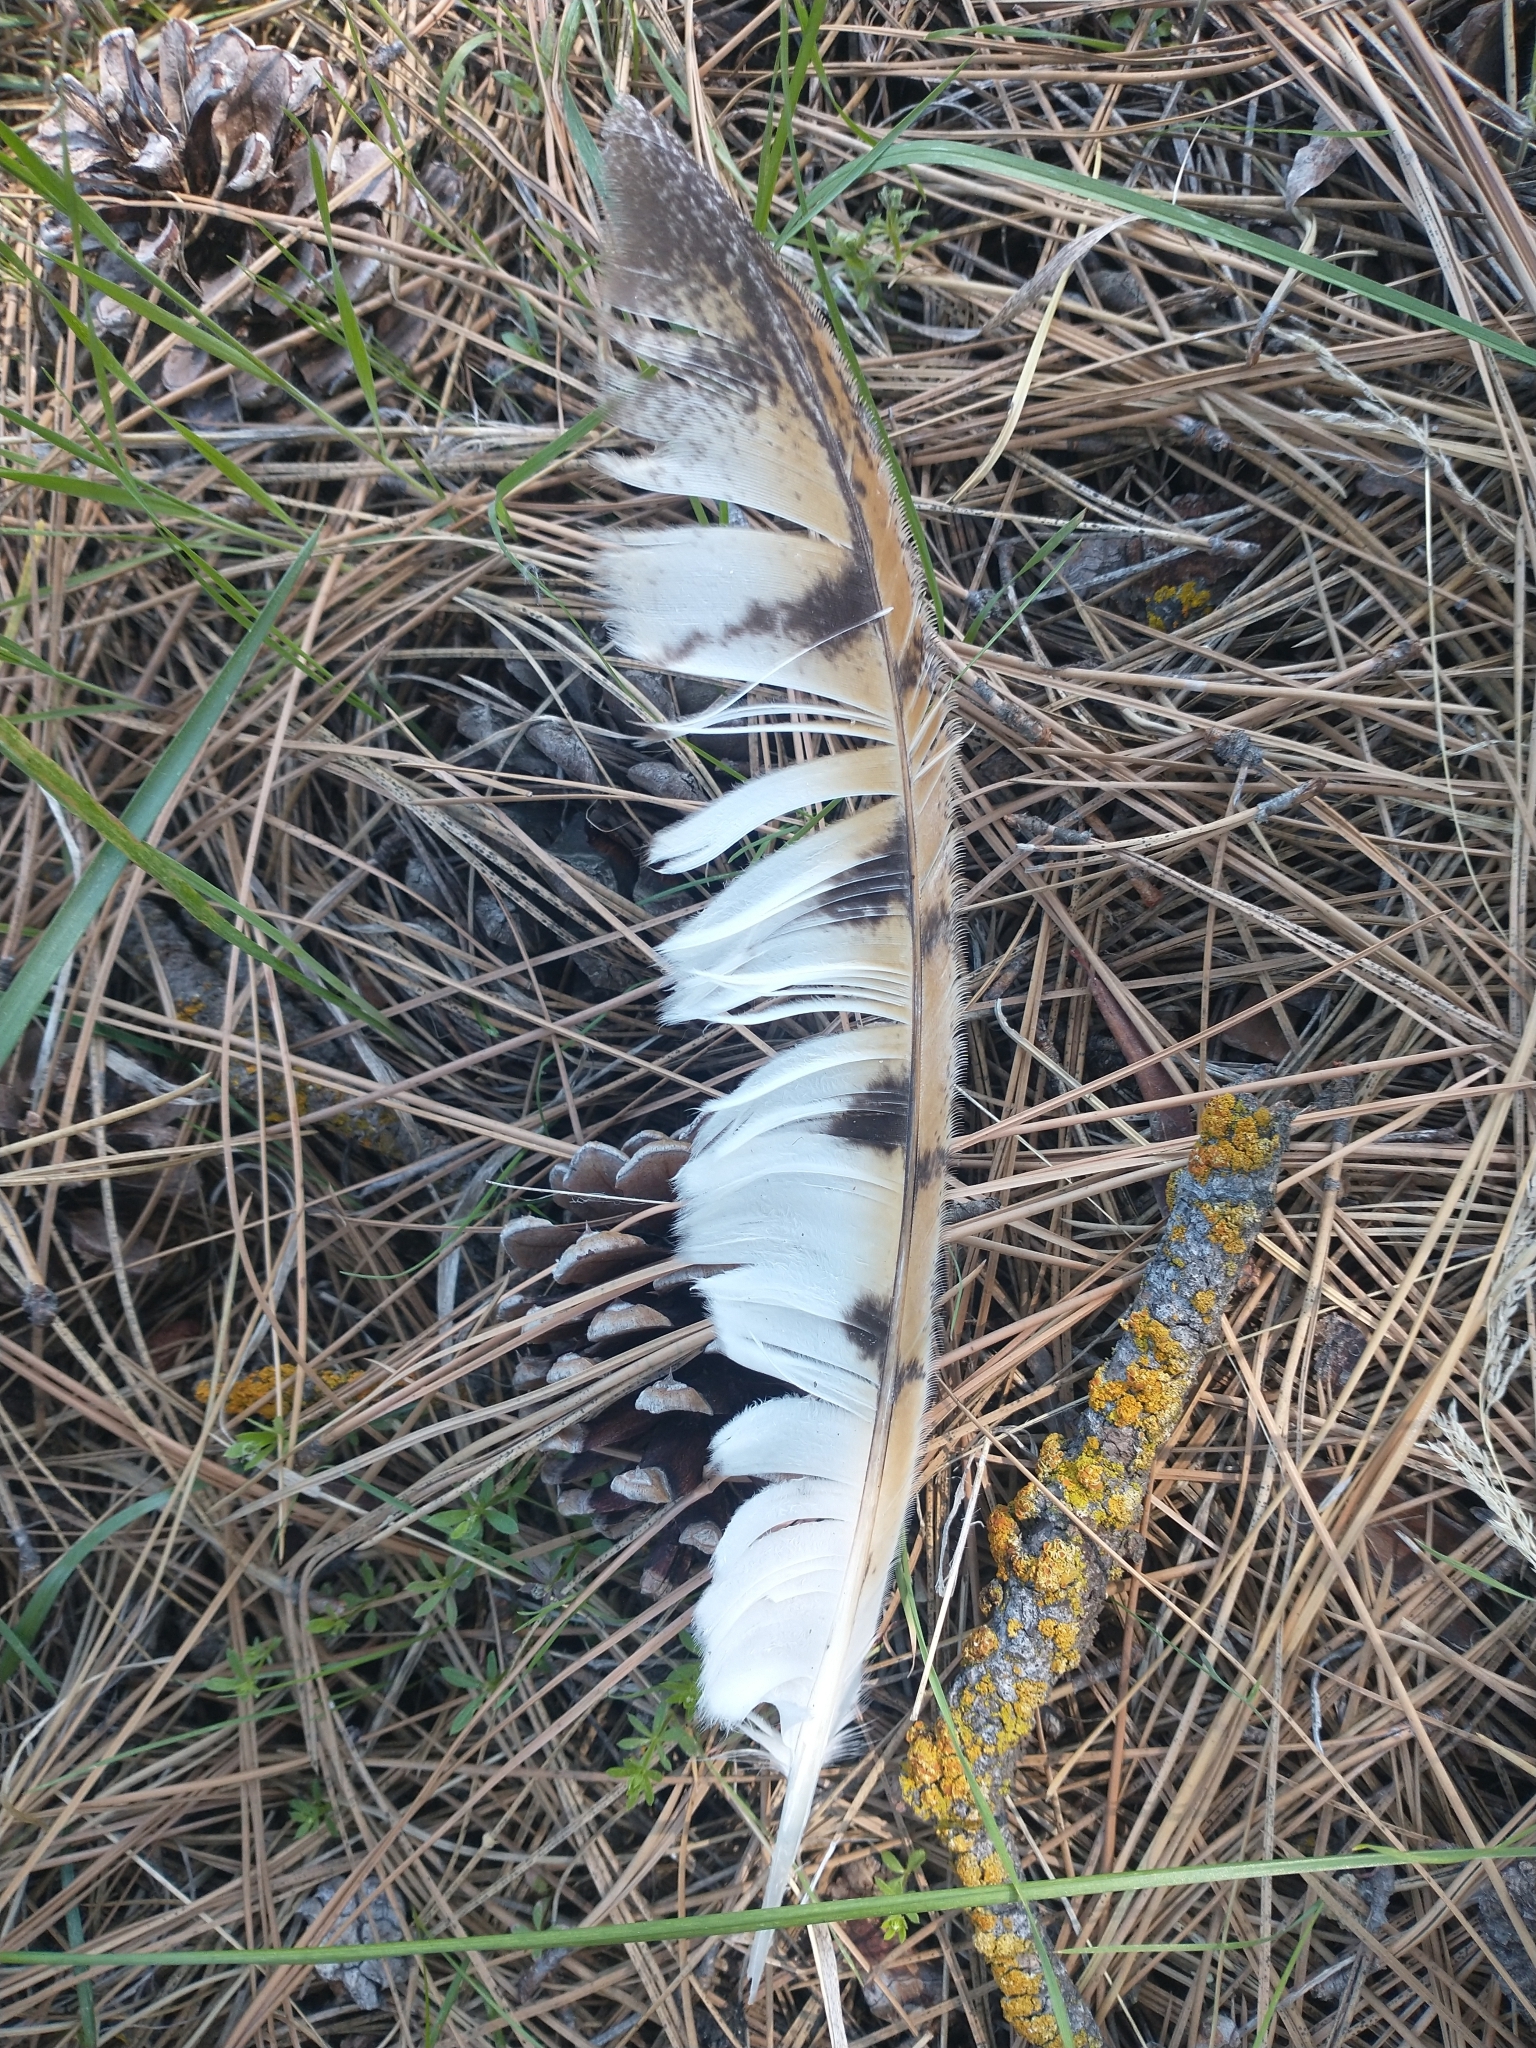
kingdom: Animalia
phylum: Chordata
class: Aves
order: Strigiformes
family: Tytonidae
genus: Tyto
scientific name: Tyto alba
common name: Barn owl
